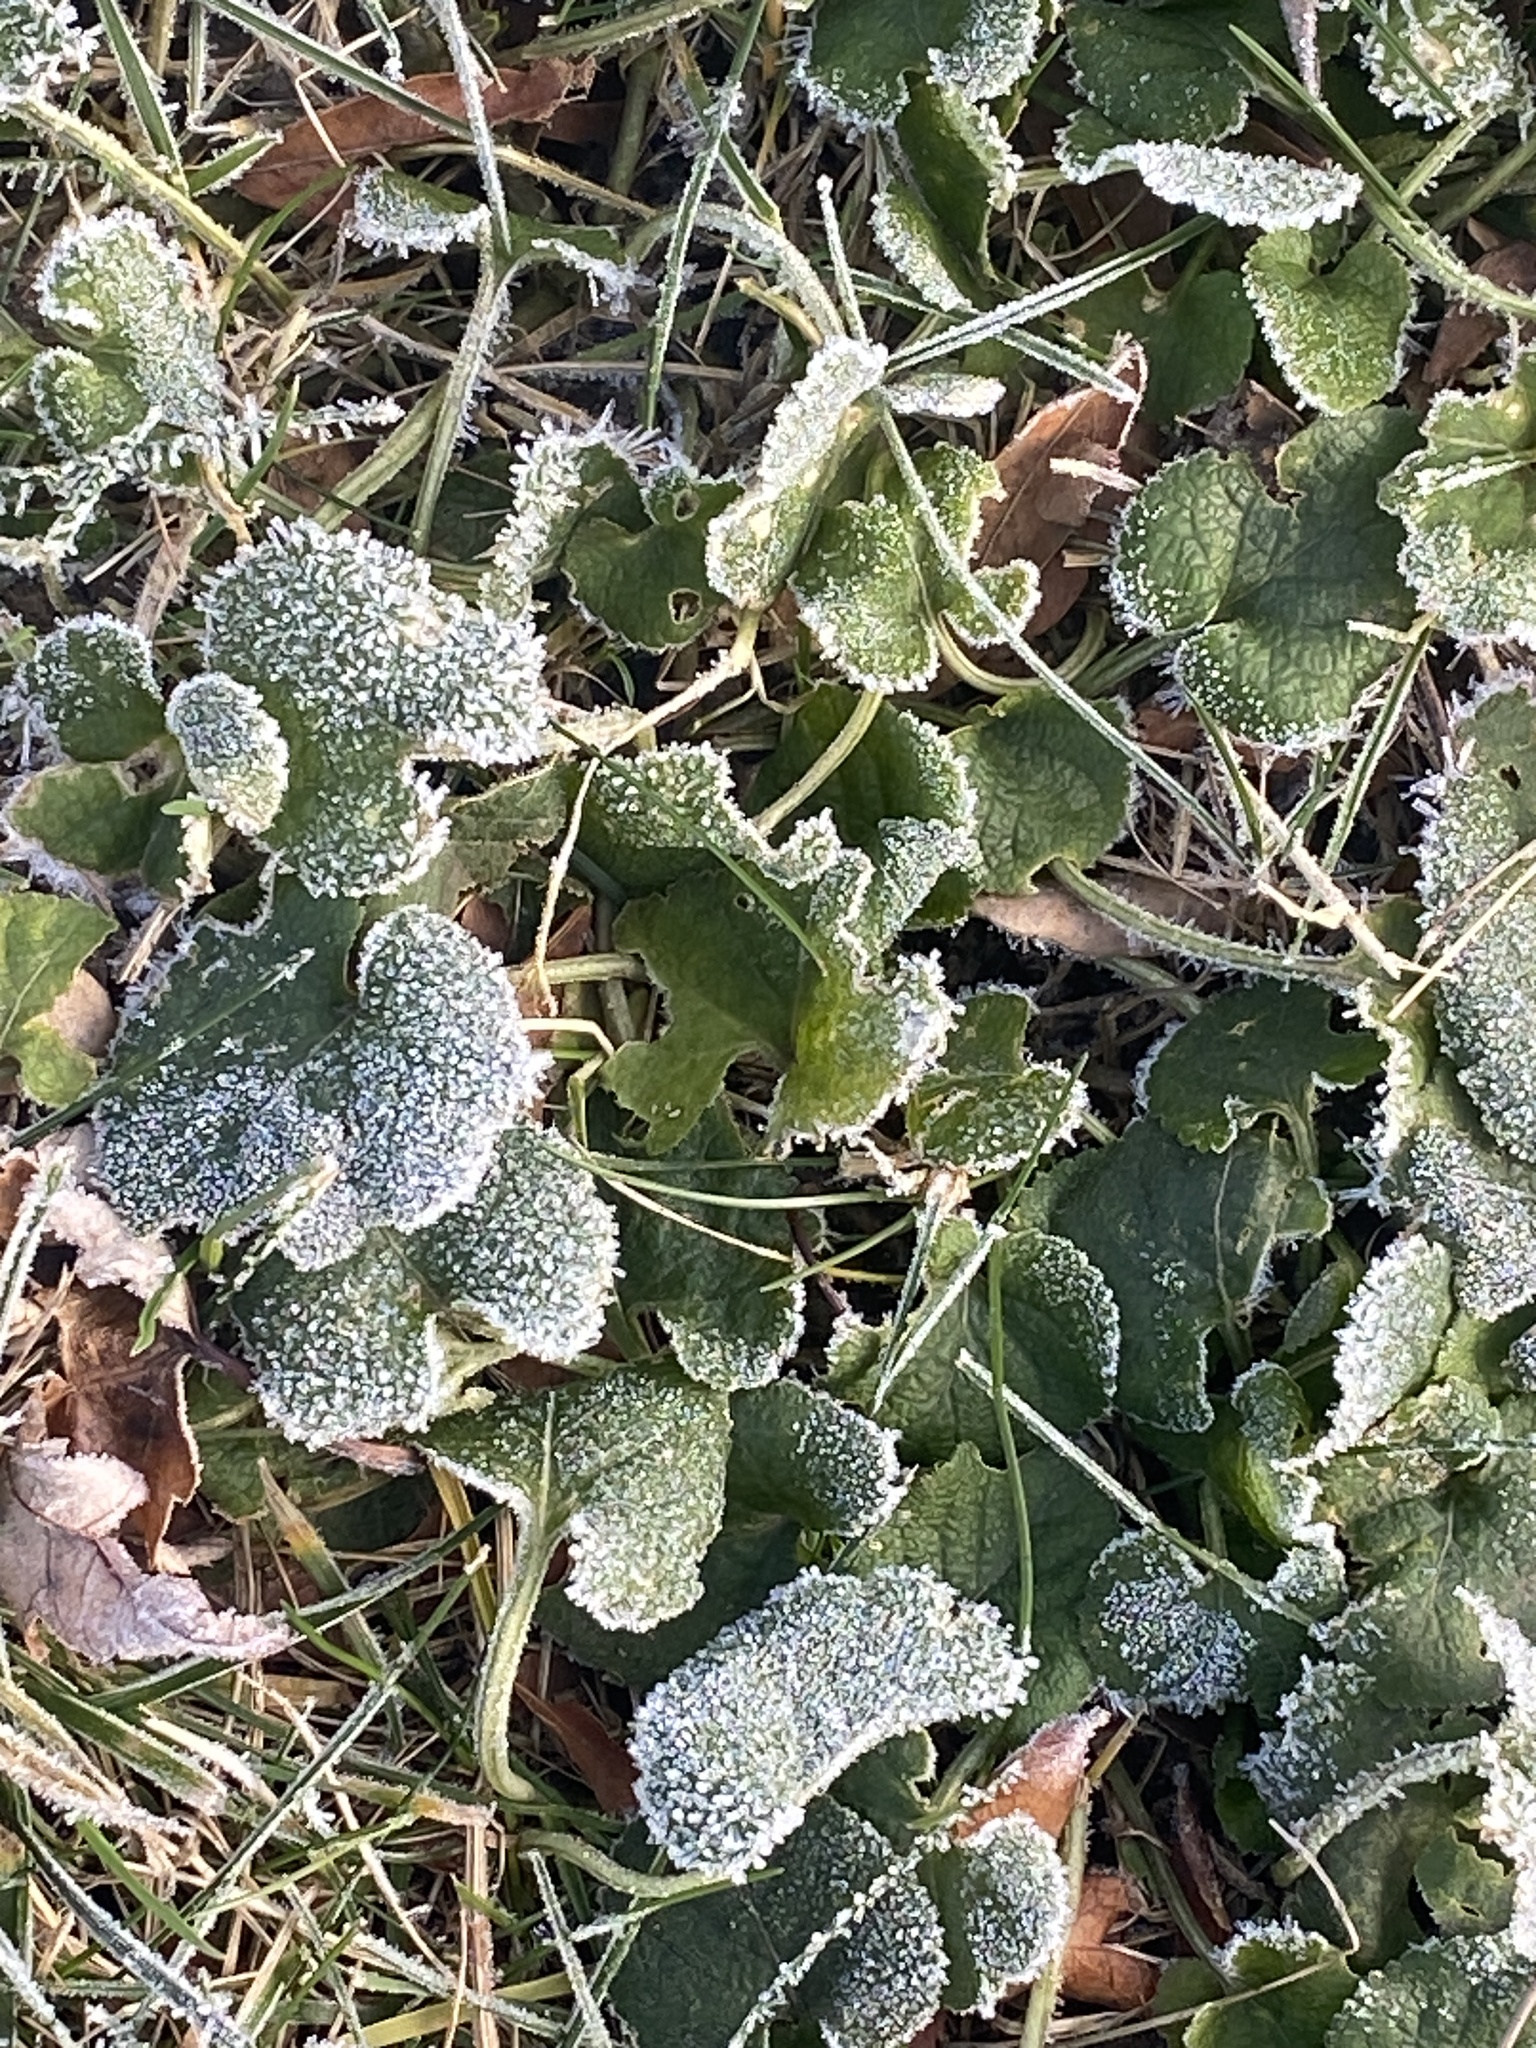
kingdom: Plantae
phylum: Tracheophyta
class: Magnoliopsida
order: Lamiales
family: Lamiaceae
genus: Lamium
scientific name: Lamium purpureum
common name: Red dead-nettle
